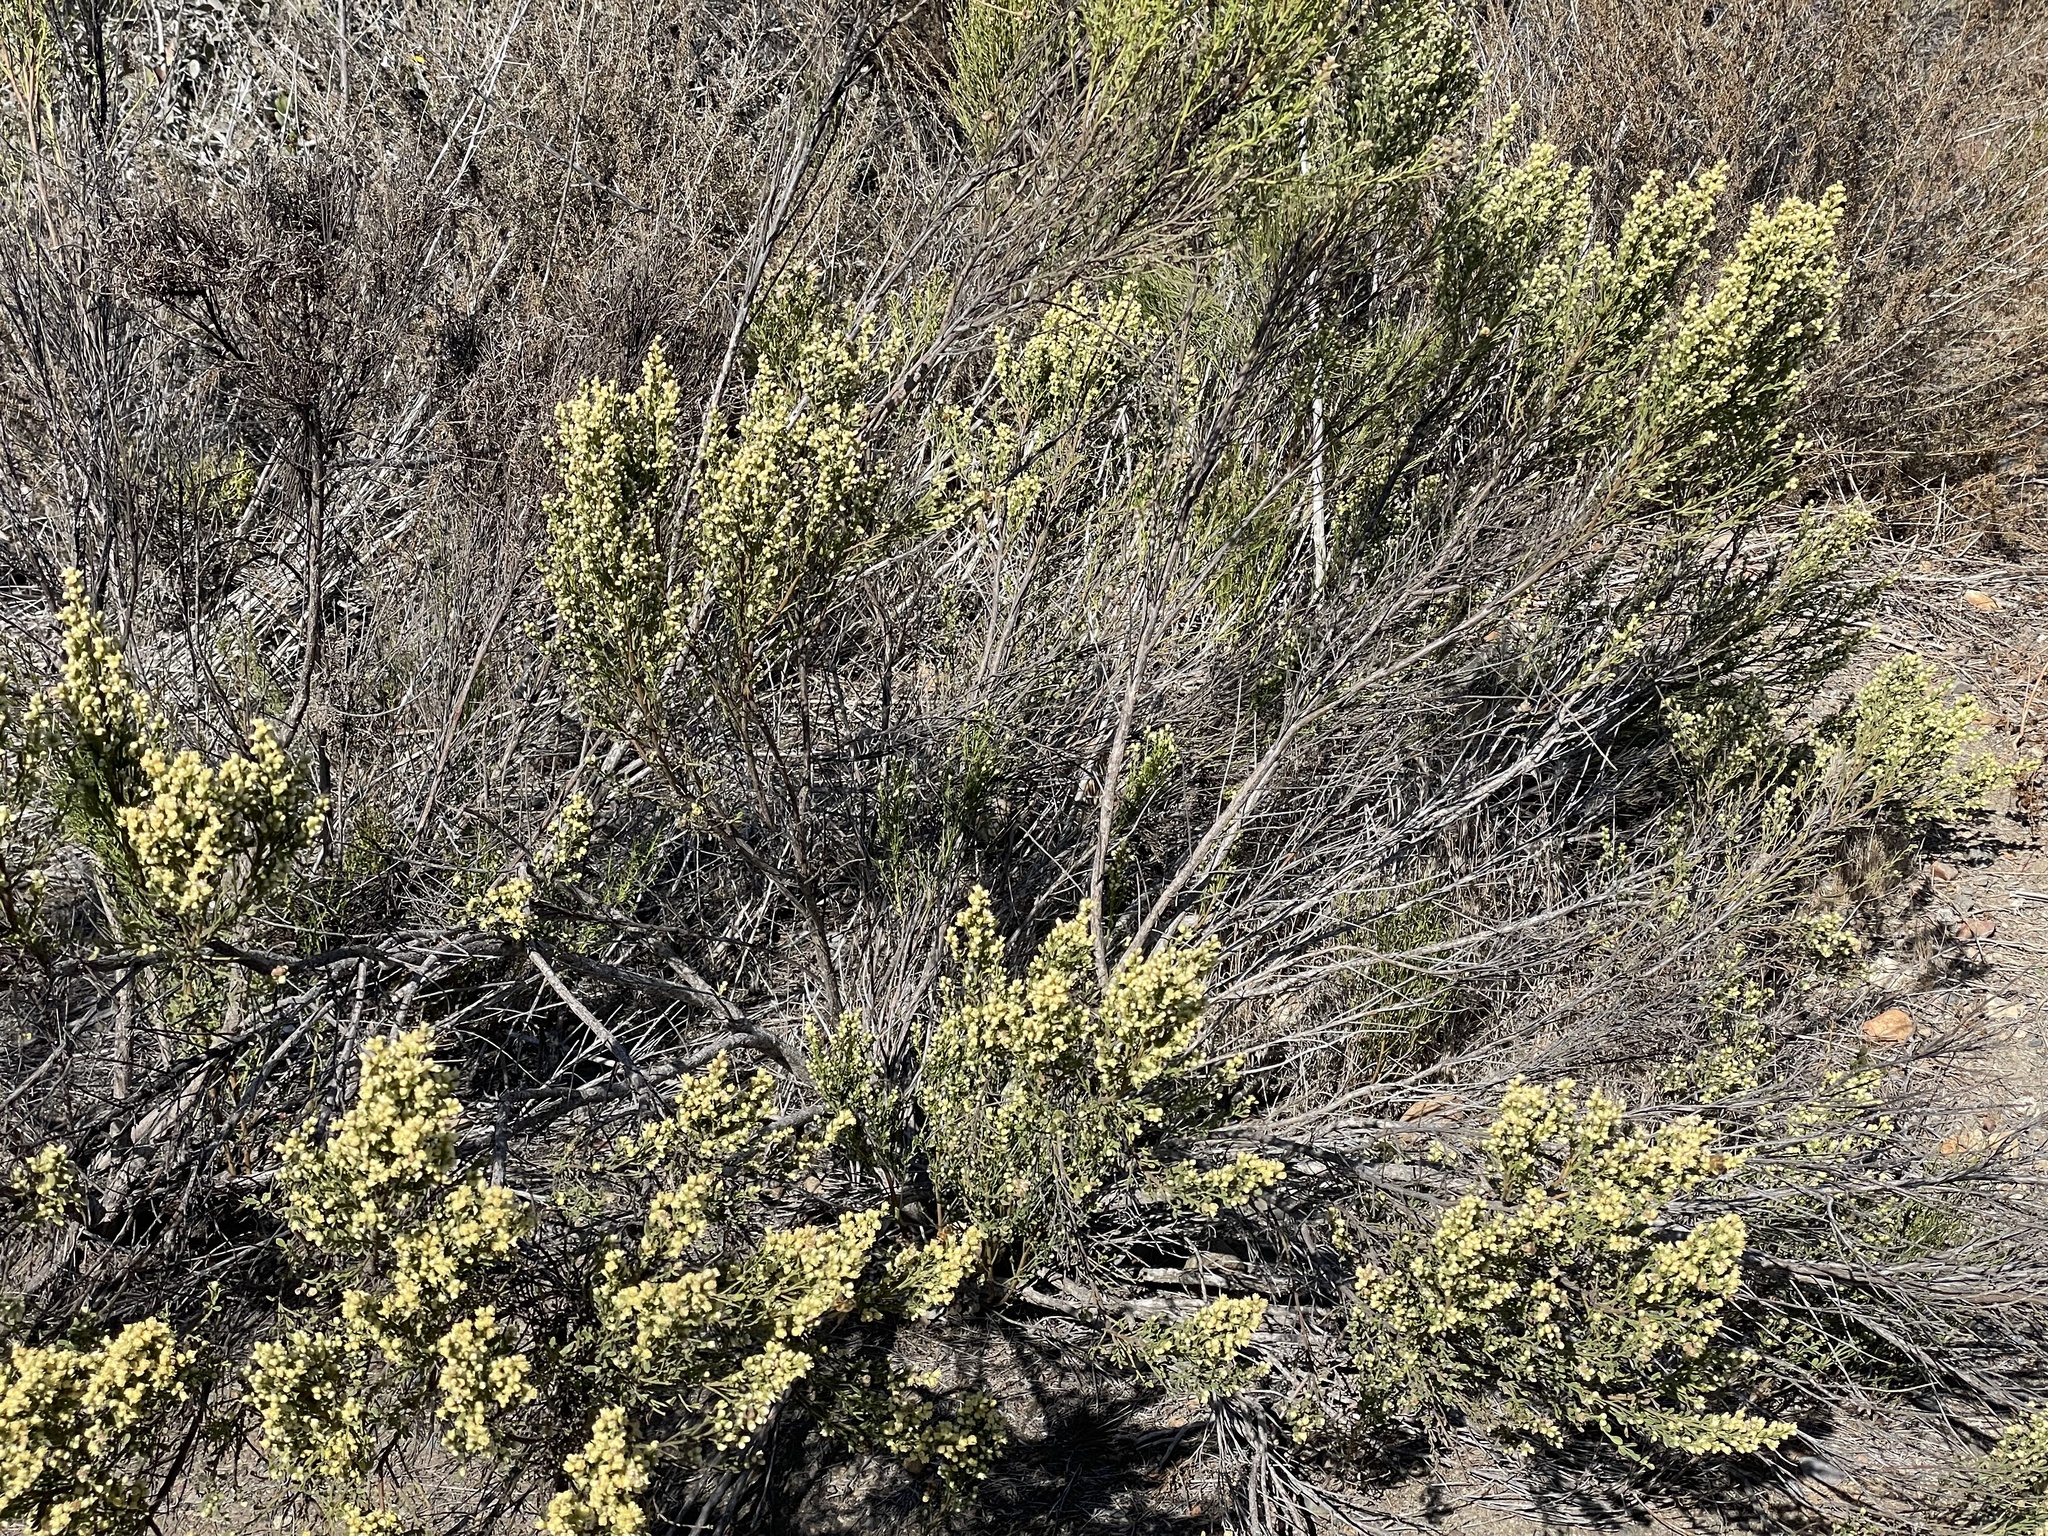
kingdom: Plantae
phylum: Tracheophyta
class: Magnoliopsida
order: Asterales
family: Asteraceae
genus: Baccharis
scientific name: Baccharis sarothroides
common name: Desert-broom
